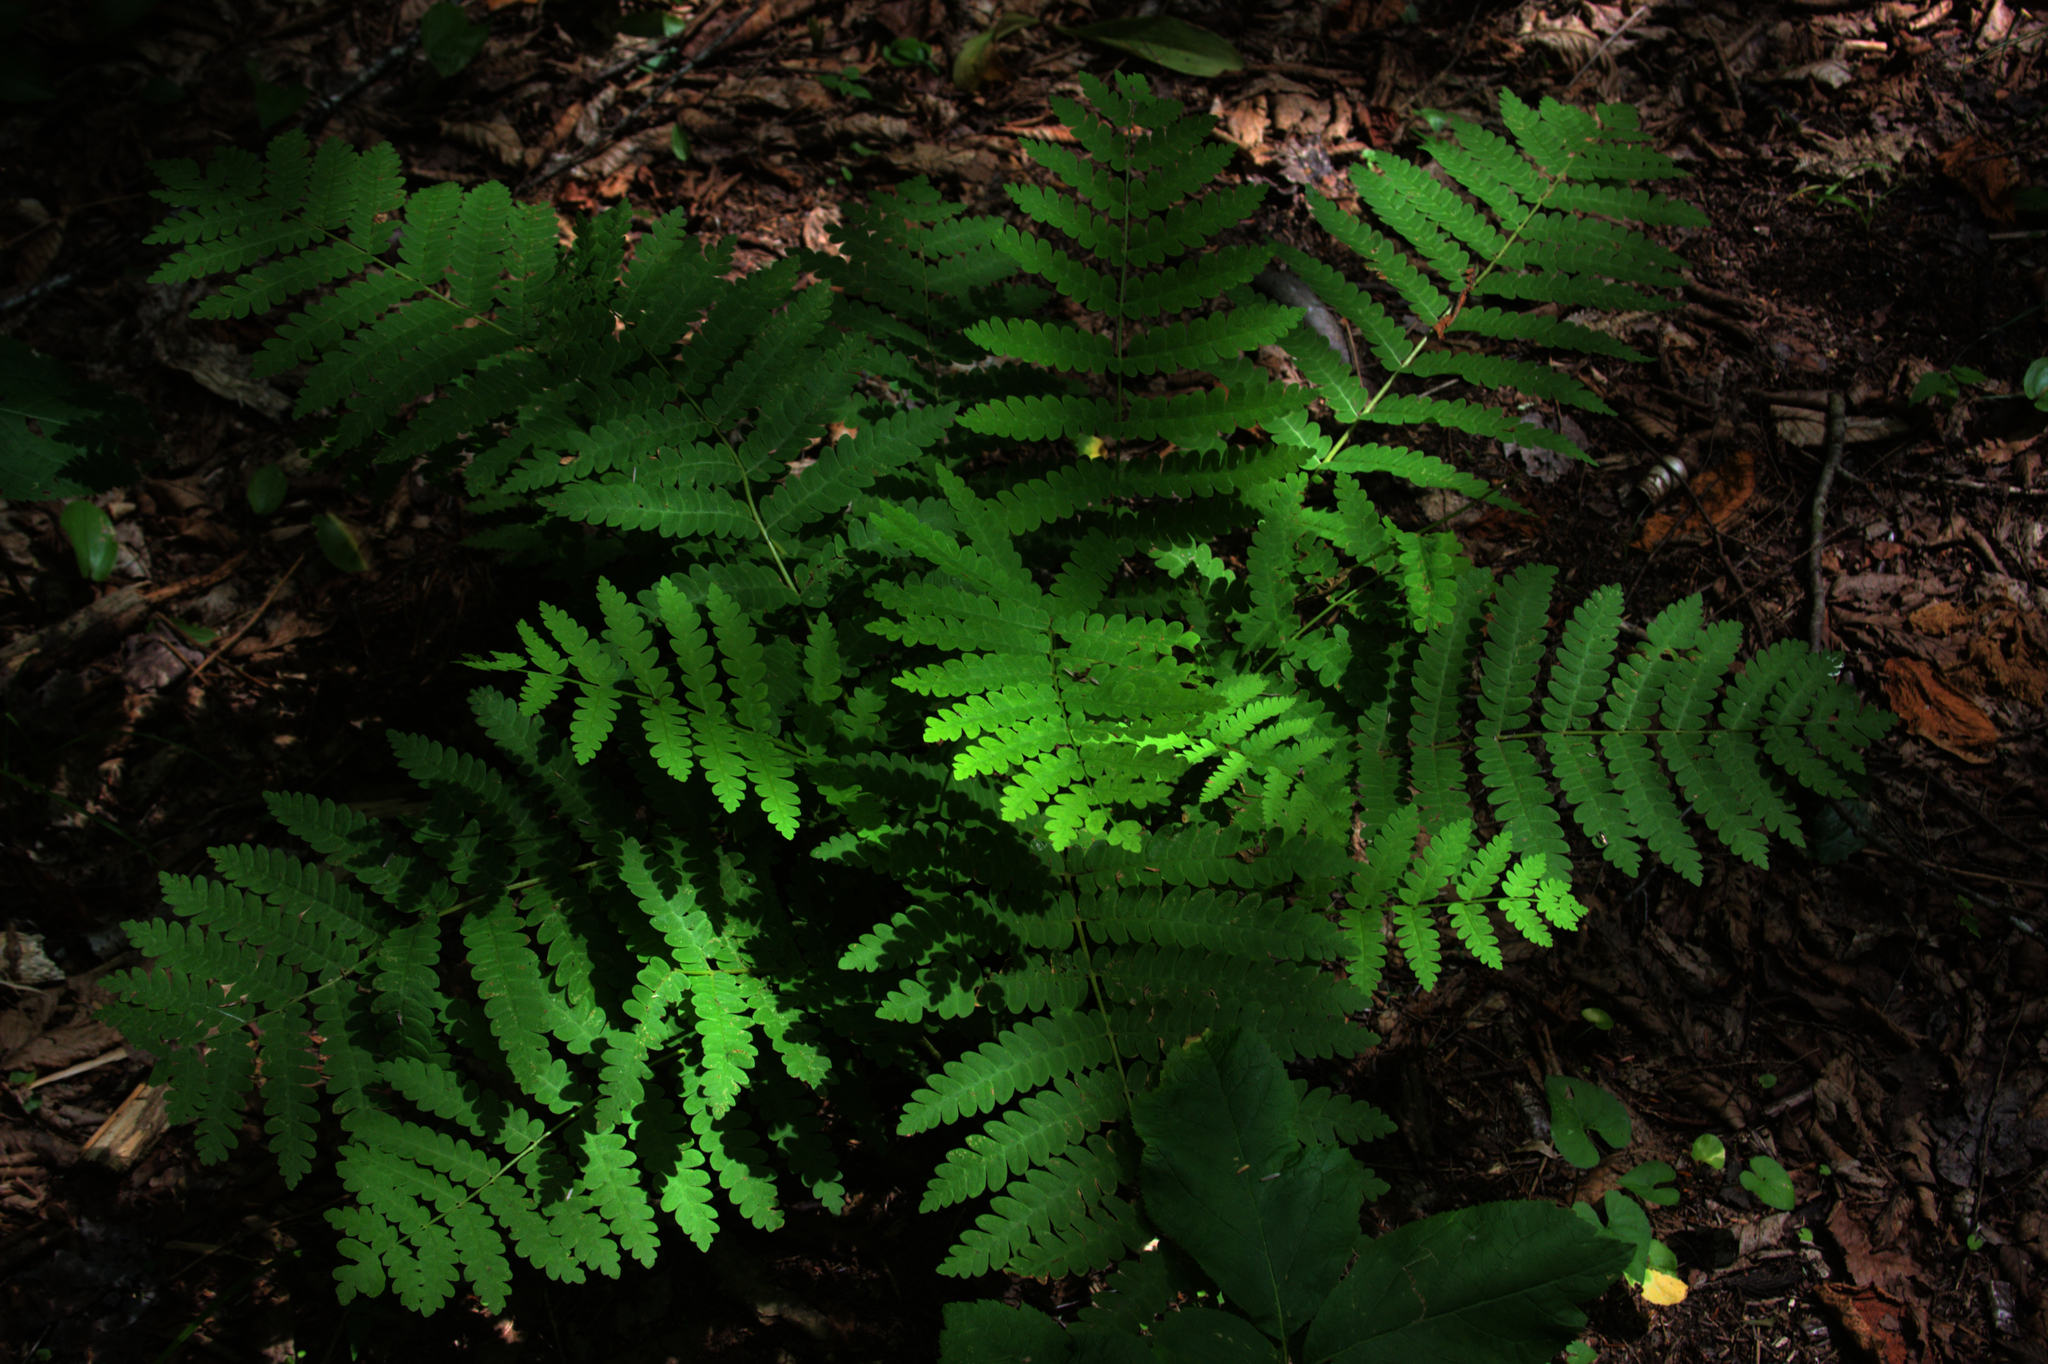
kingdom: Plantae
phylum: Tracheophyta
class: Polypodiopsida
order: Osmundales
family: Osmundaceae
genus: Claytosmunda
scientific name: Claytosmunda claytoniana
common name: Clayton's fern
